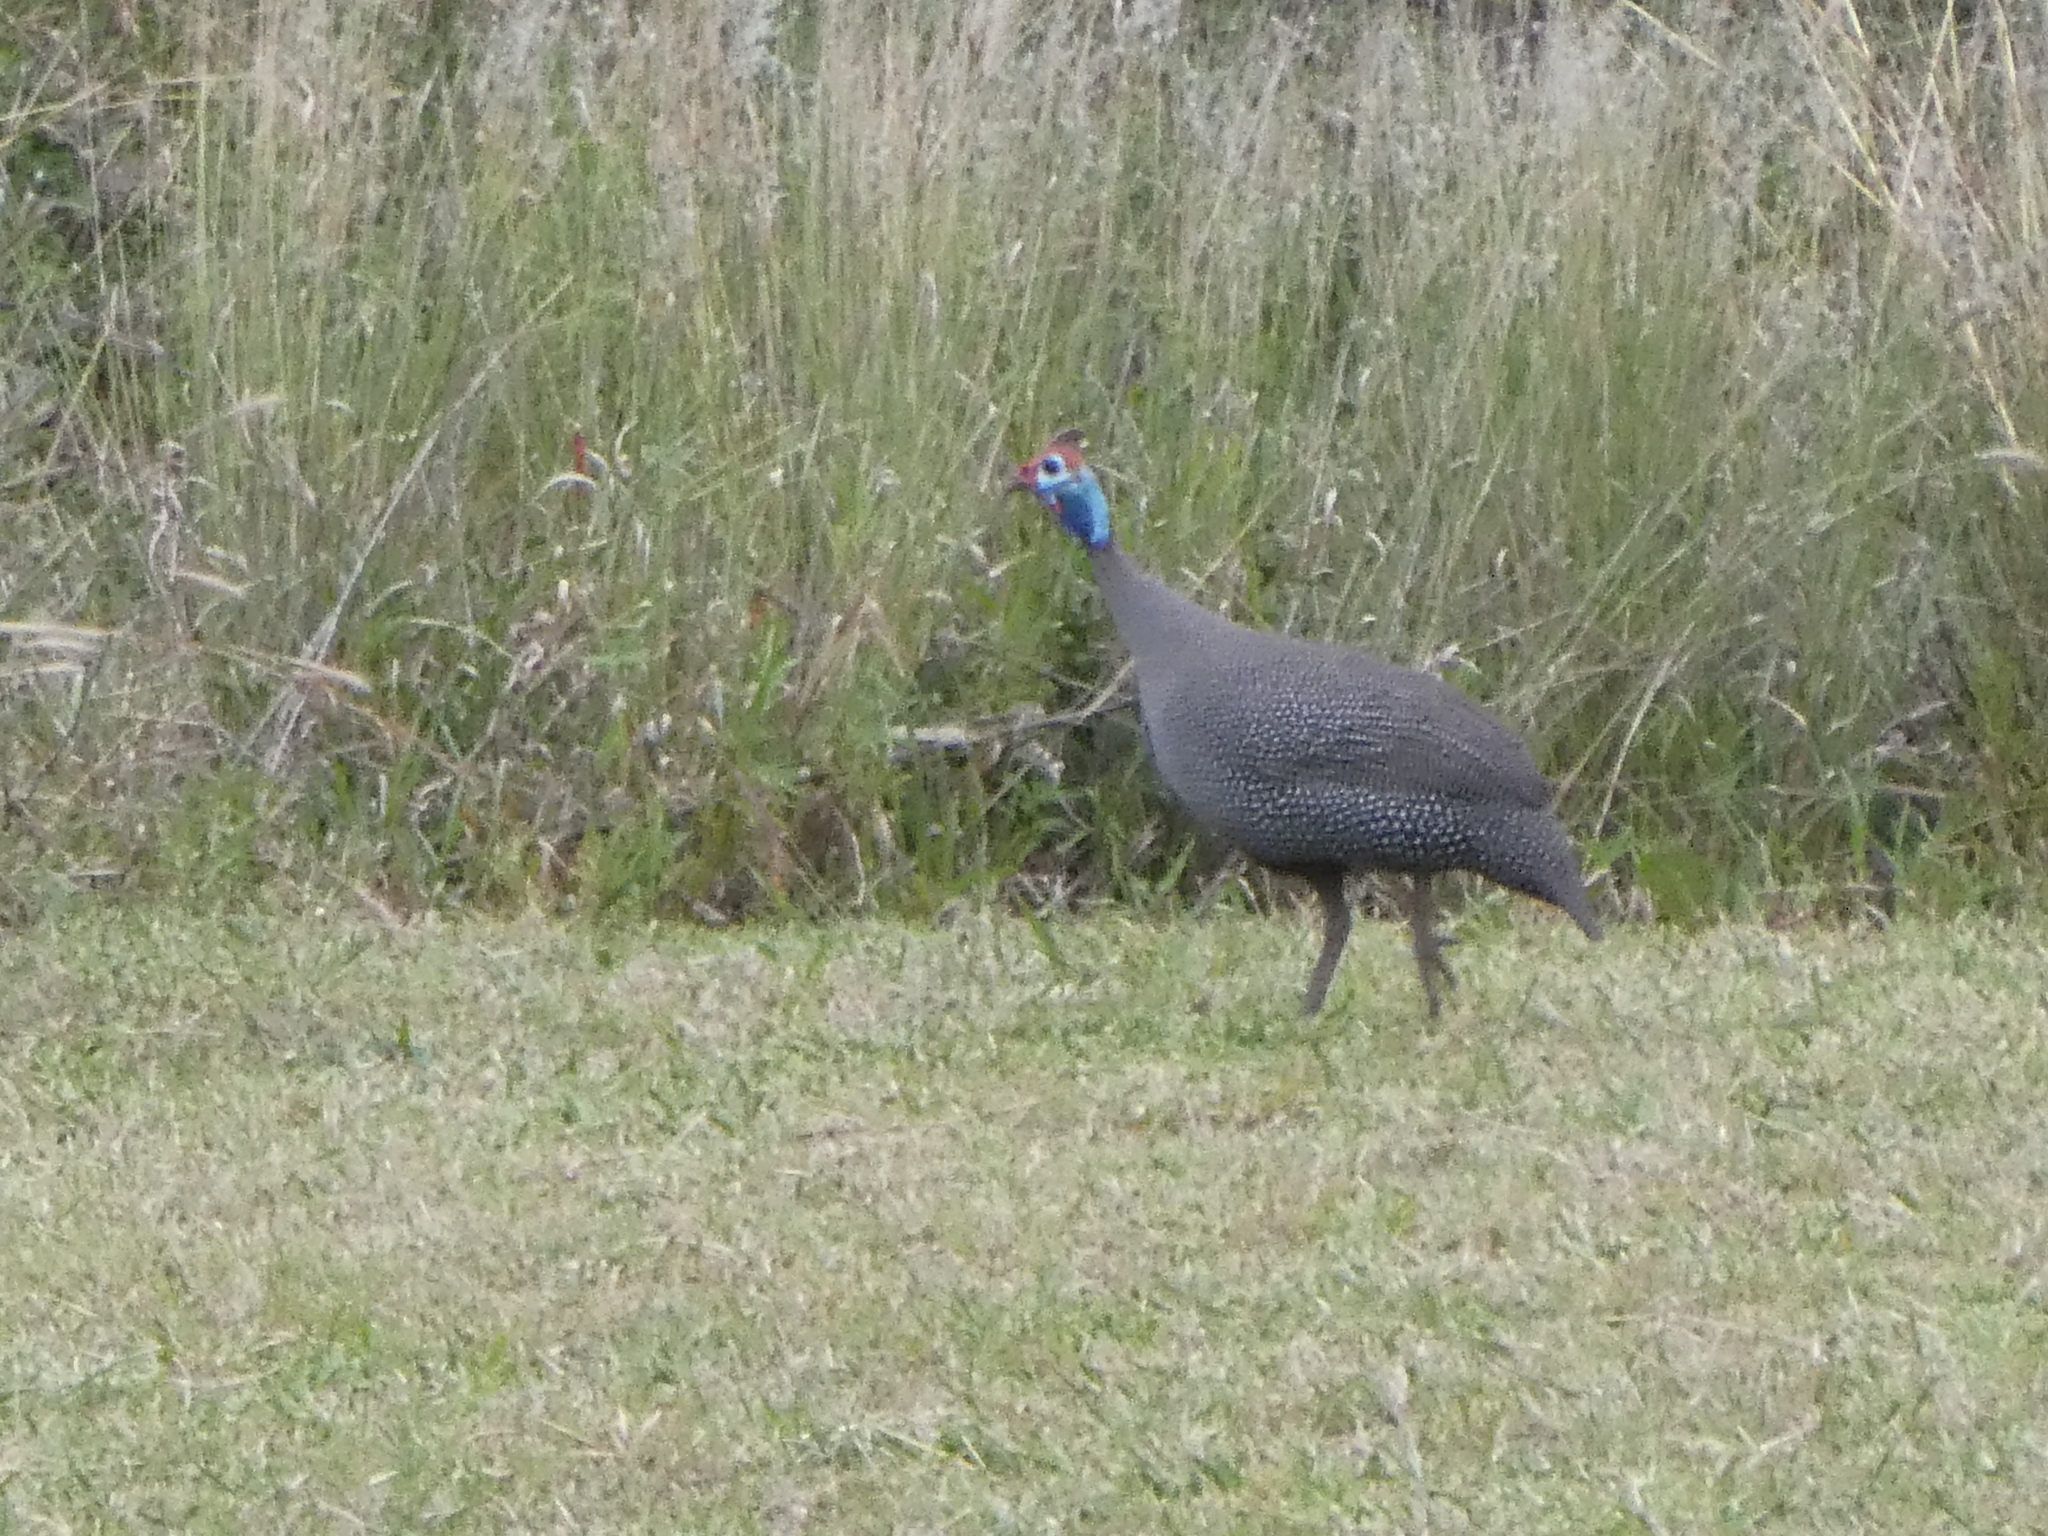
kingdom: Animalia
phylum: Chordata
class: Aves
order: Galliformes
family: Numididae
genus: Numida
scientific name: Numida meleagris
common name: Helmeted guineafowl
